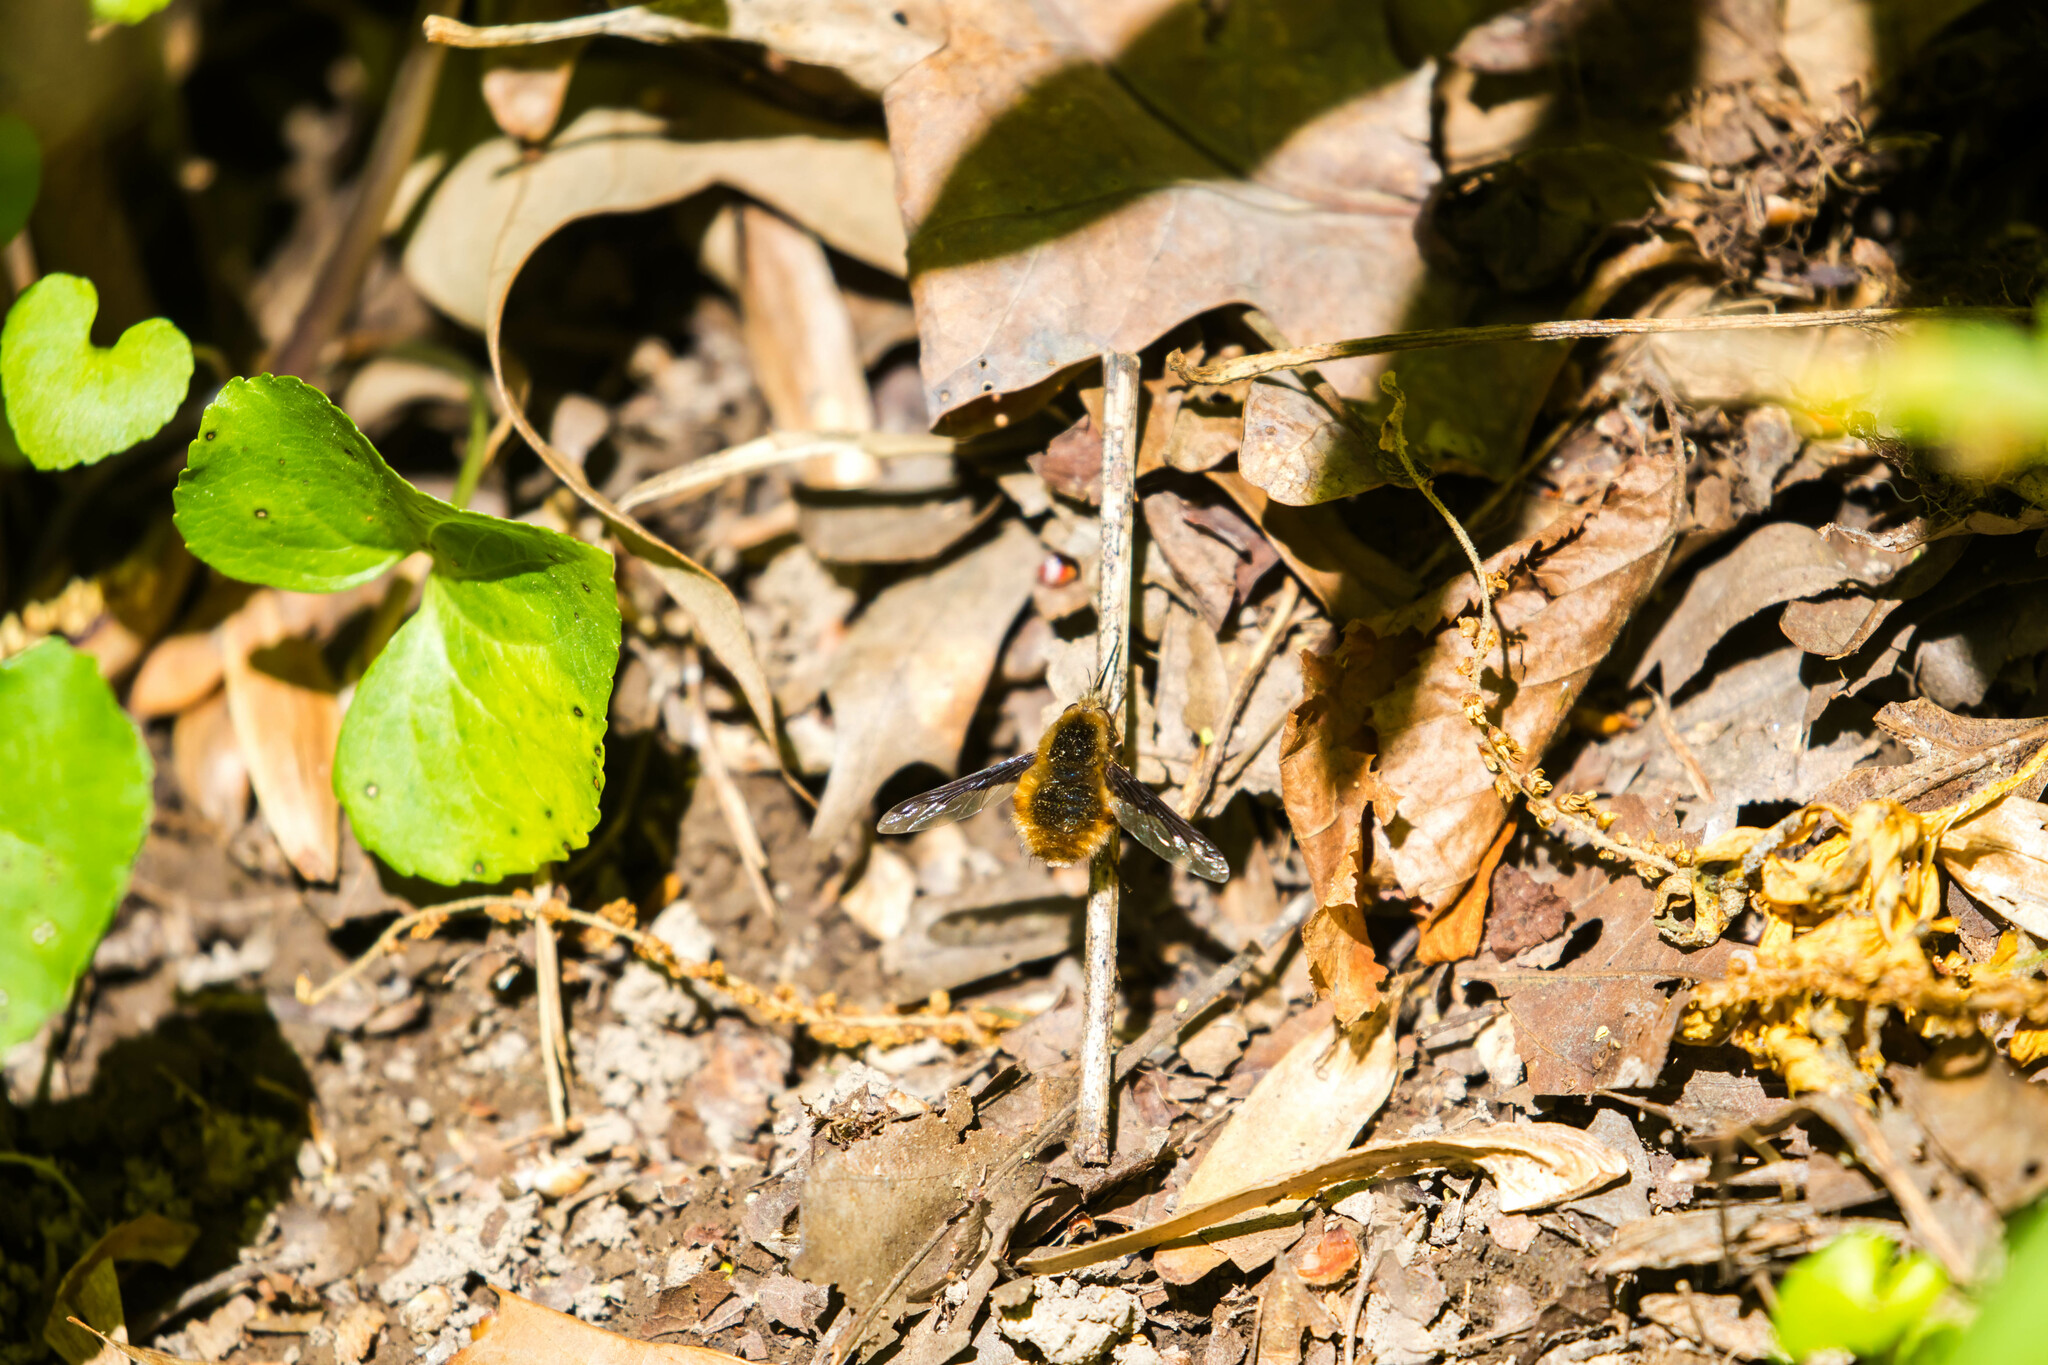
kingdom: Animalia
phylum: Arthropoda
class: Insecta
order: Diptera
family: Bombyliidae
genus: Bombylius
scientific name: Bombylius major
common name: Bee fly
